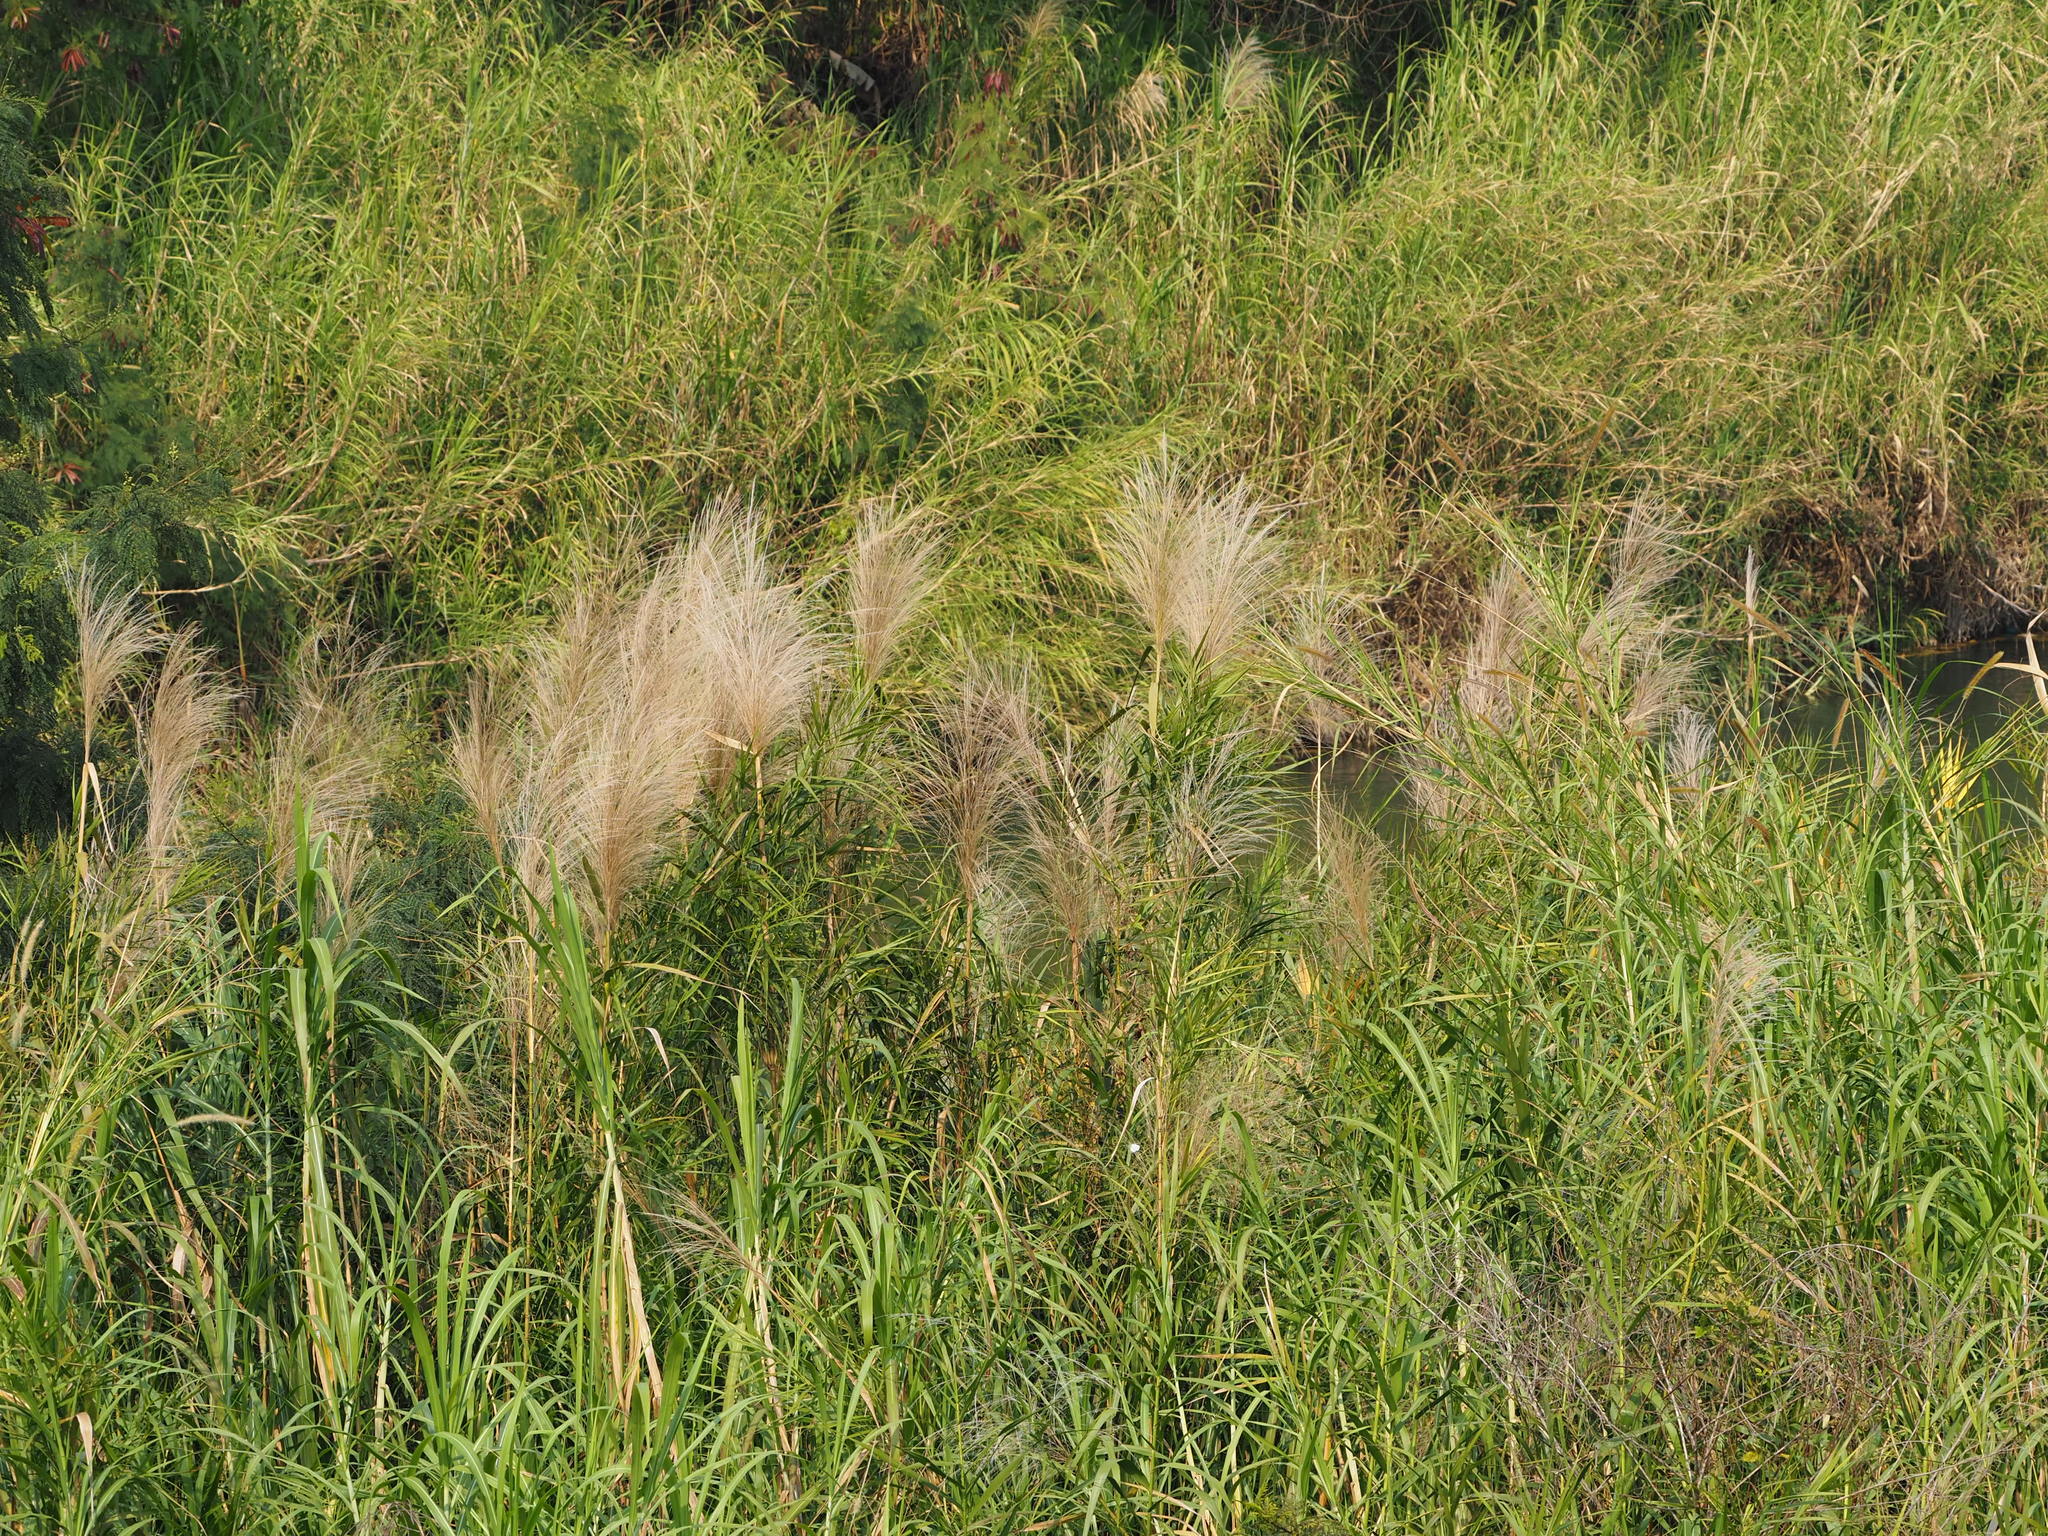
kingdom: Plantae
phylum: Tracheophyta
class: Liliopsida
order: Poales
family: Poaceae
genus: Phragmites
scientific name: Phragmites karka
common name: Tropical reed
